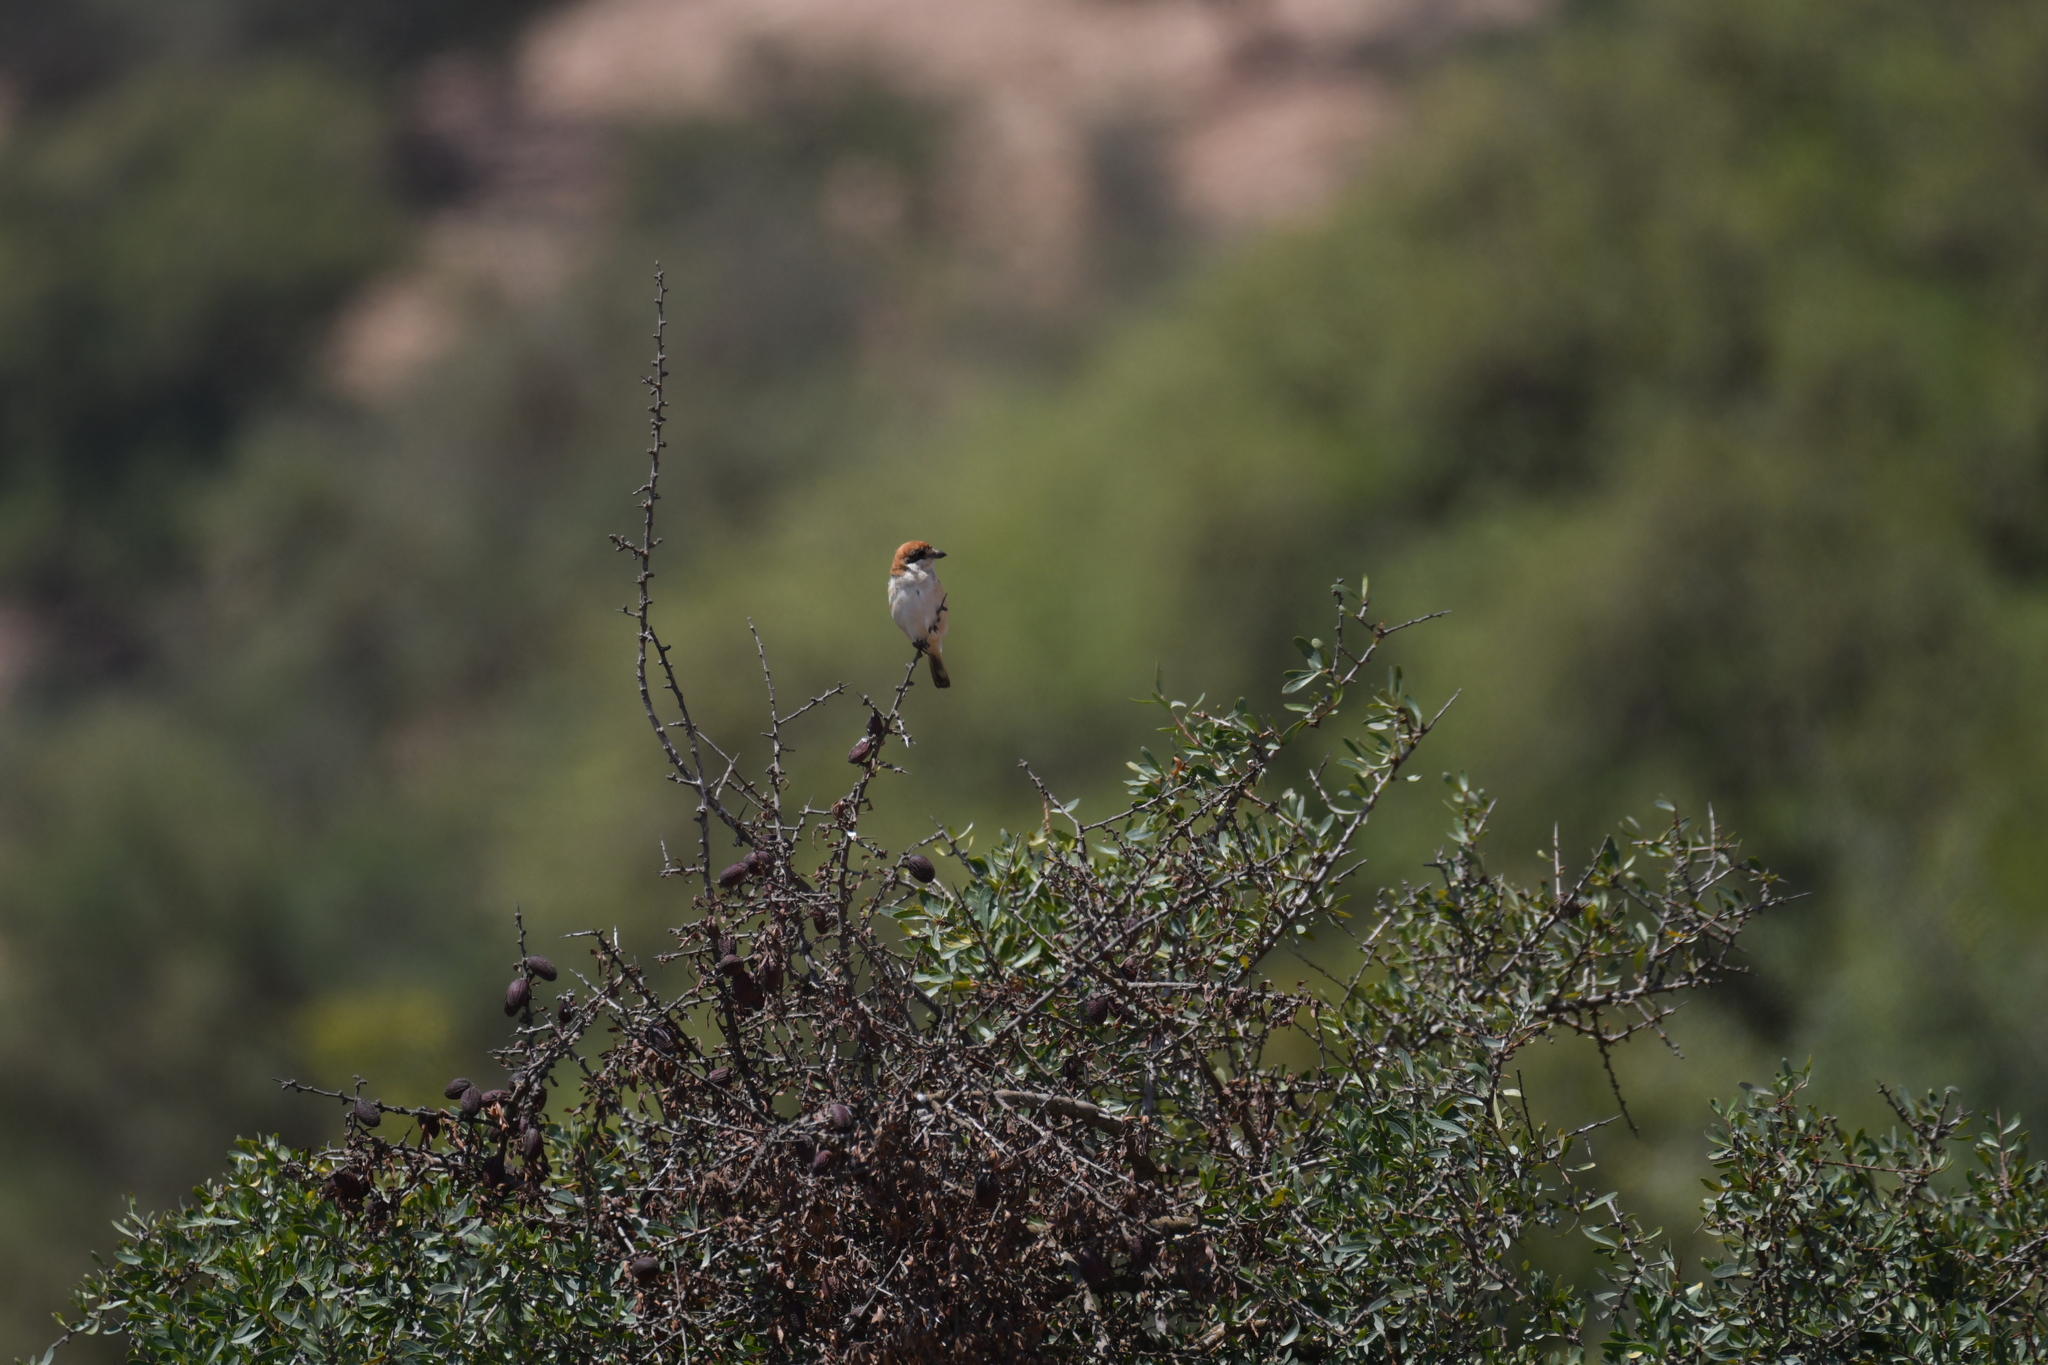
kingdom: Animalia
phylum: Chordata
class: Aves
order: Passeriformes
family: Laniidae
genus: Lanius
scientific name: Lanius senator
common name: Woodchat shrike
